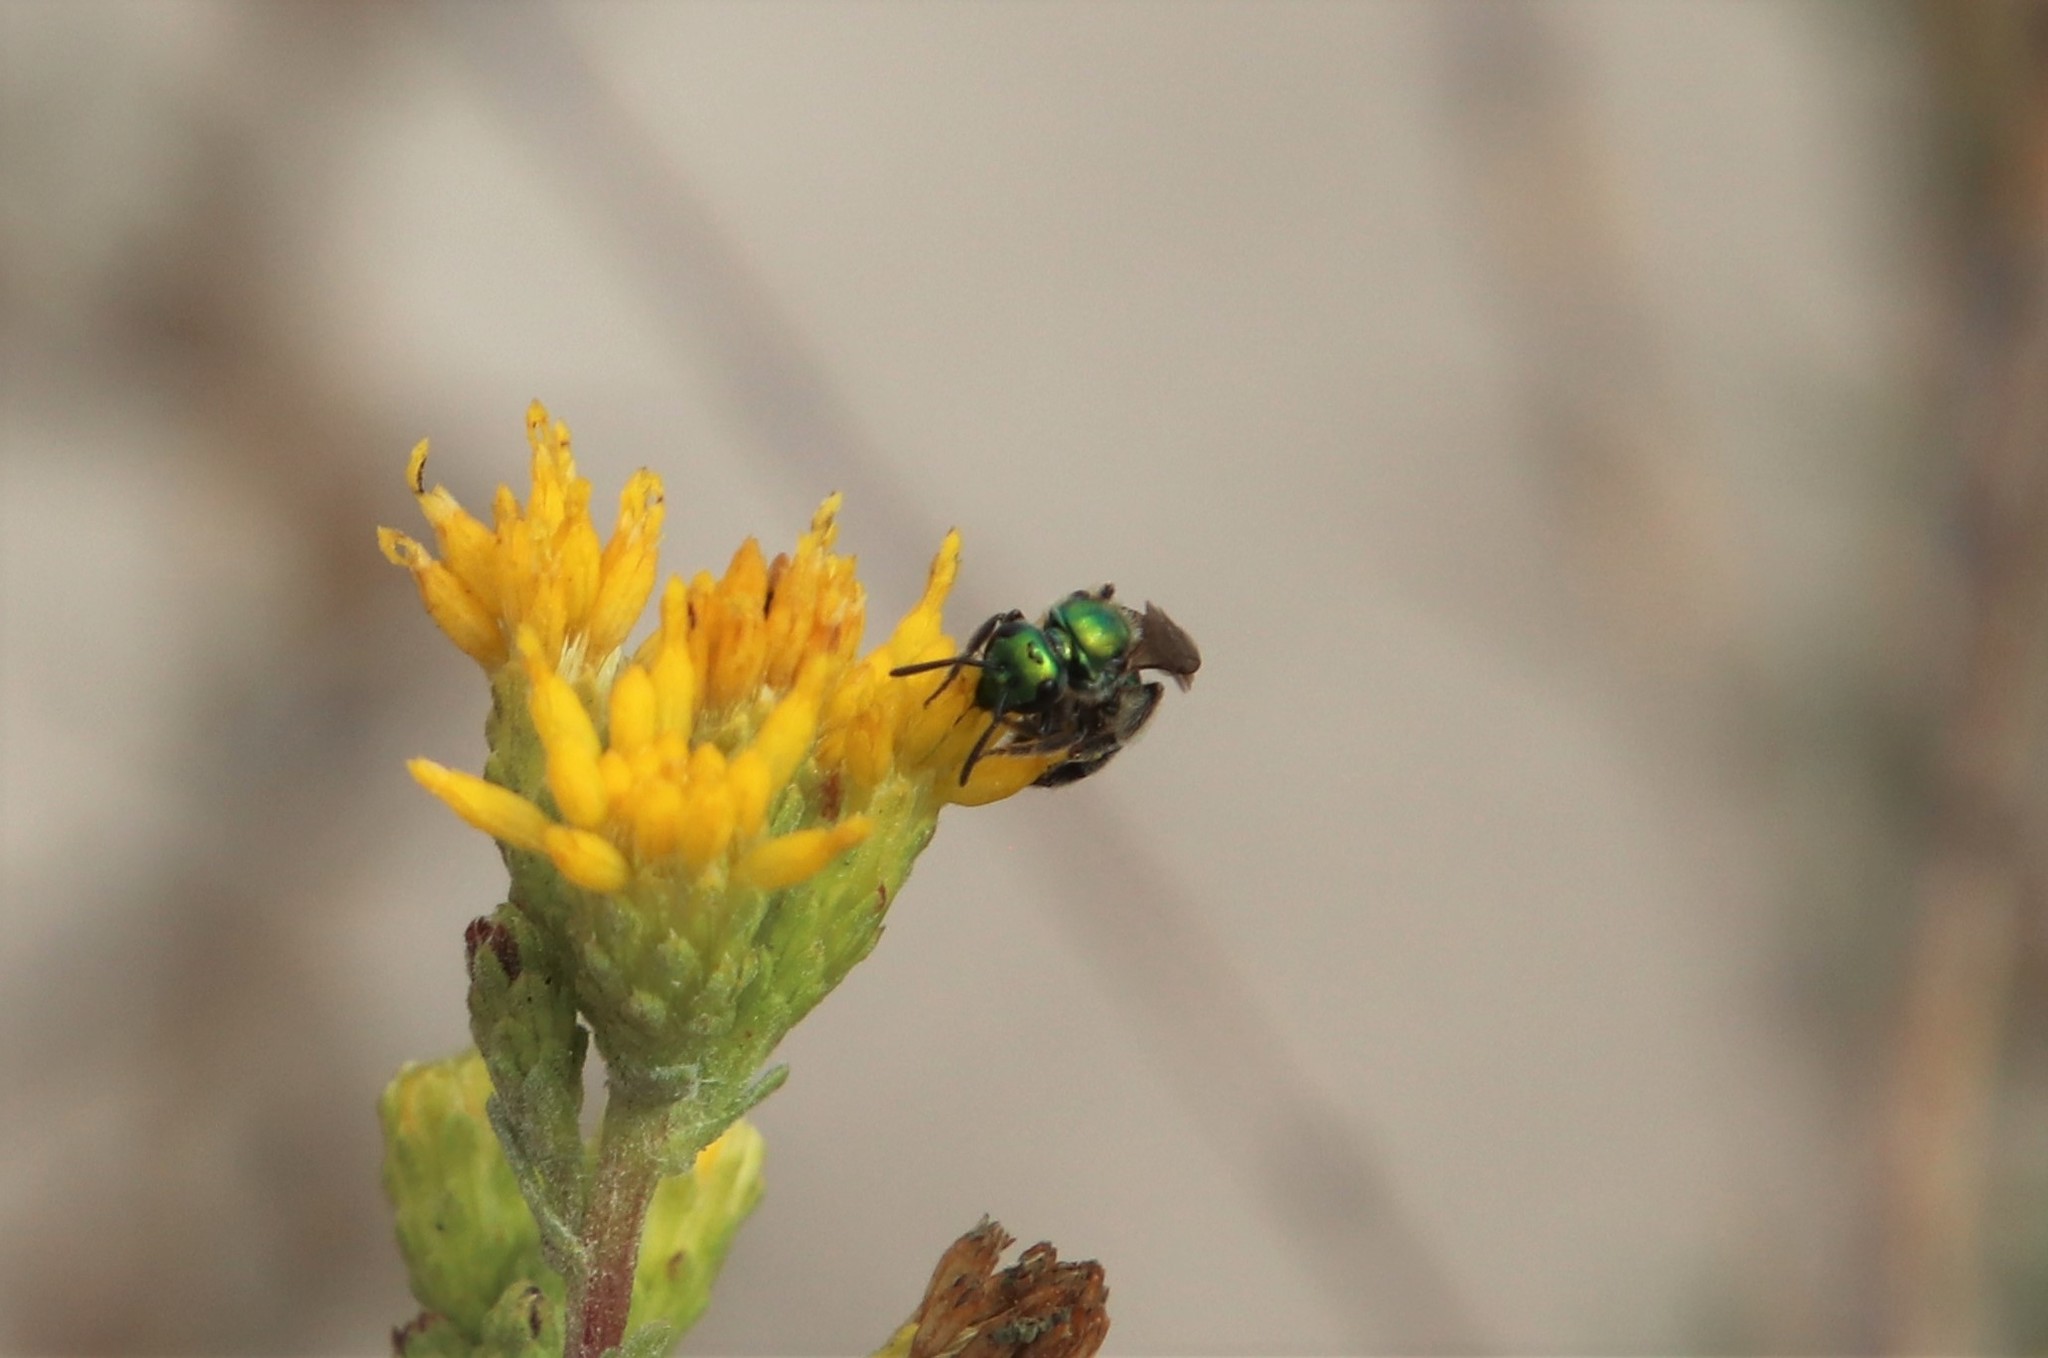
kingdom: Animalia
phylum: Arthropoda
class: Insecta
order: Hymenoptera
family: Halictidae
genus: Augochlorella
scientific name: Augochlorella pomoniella
